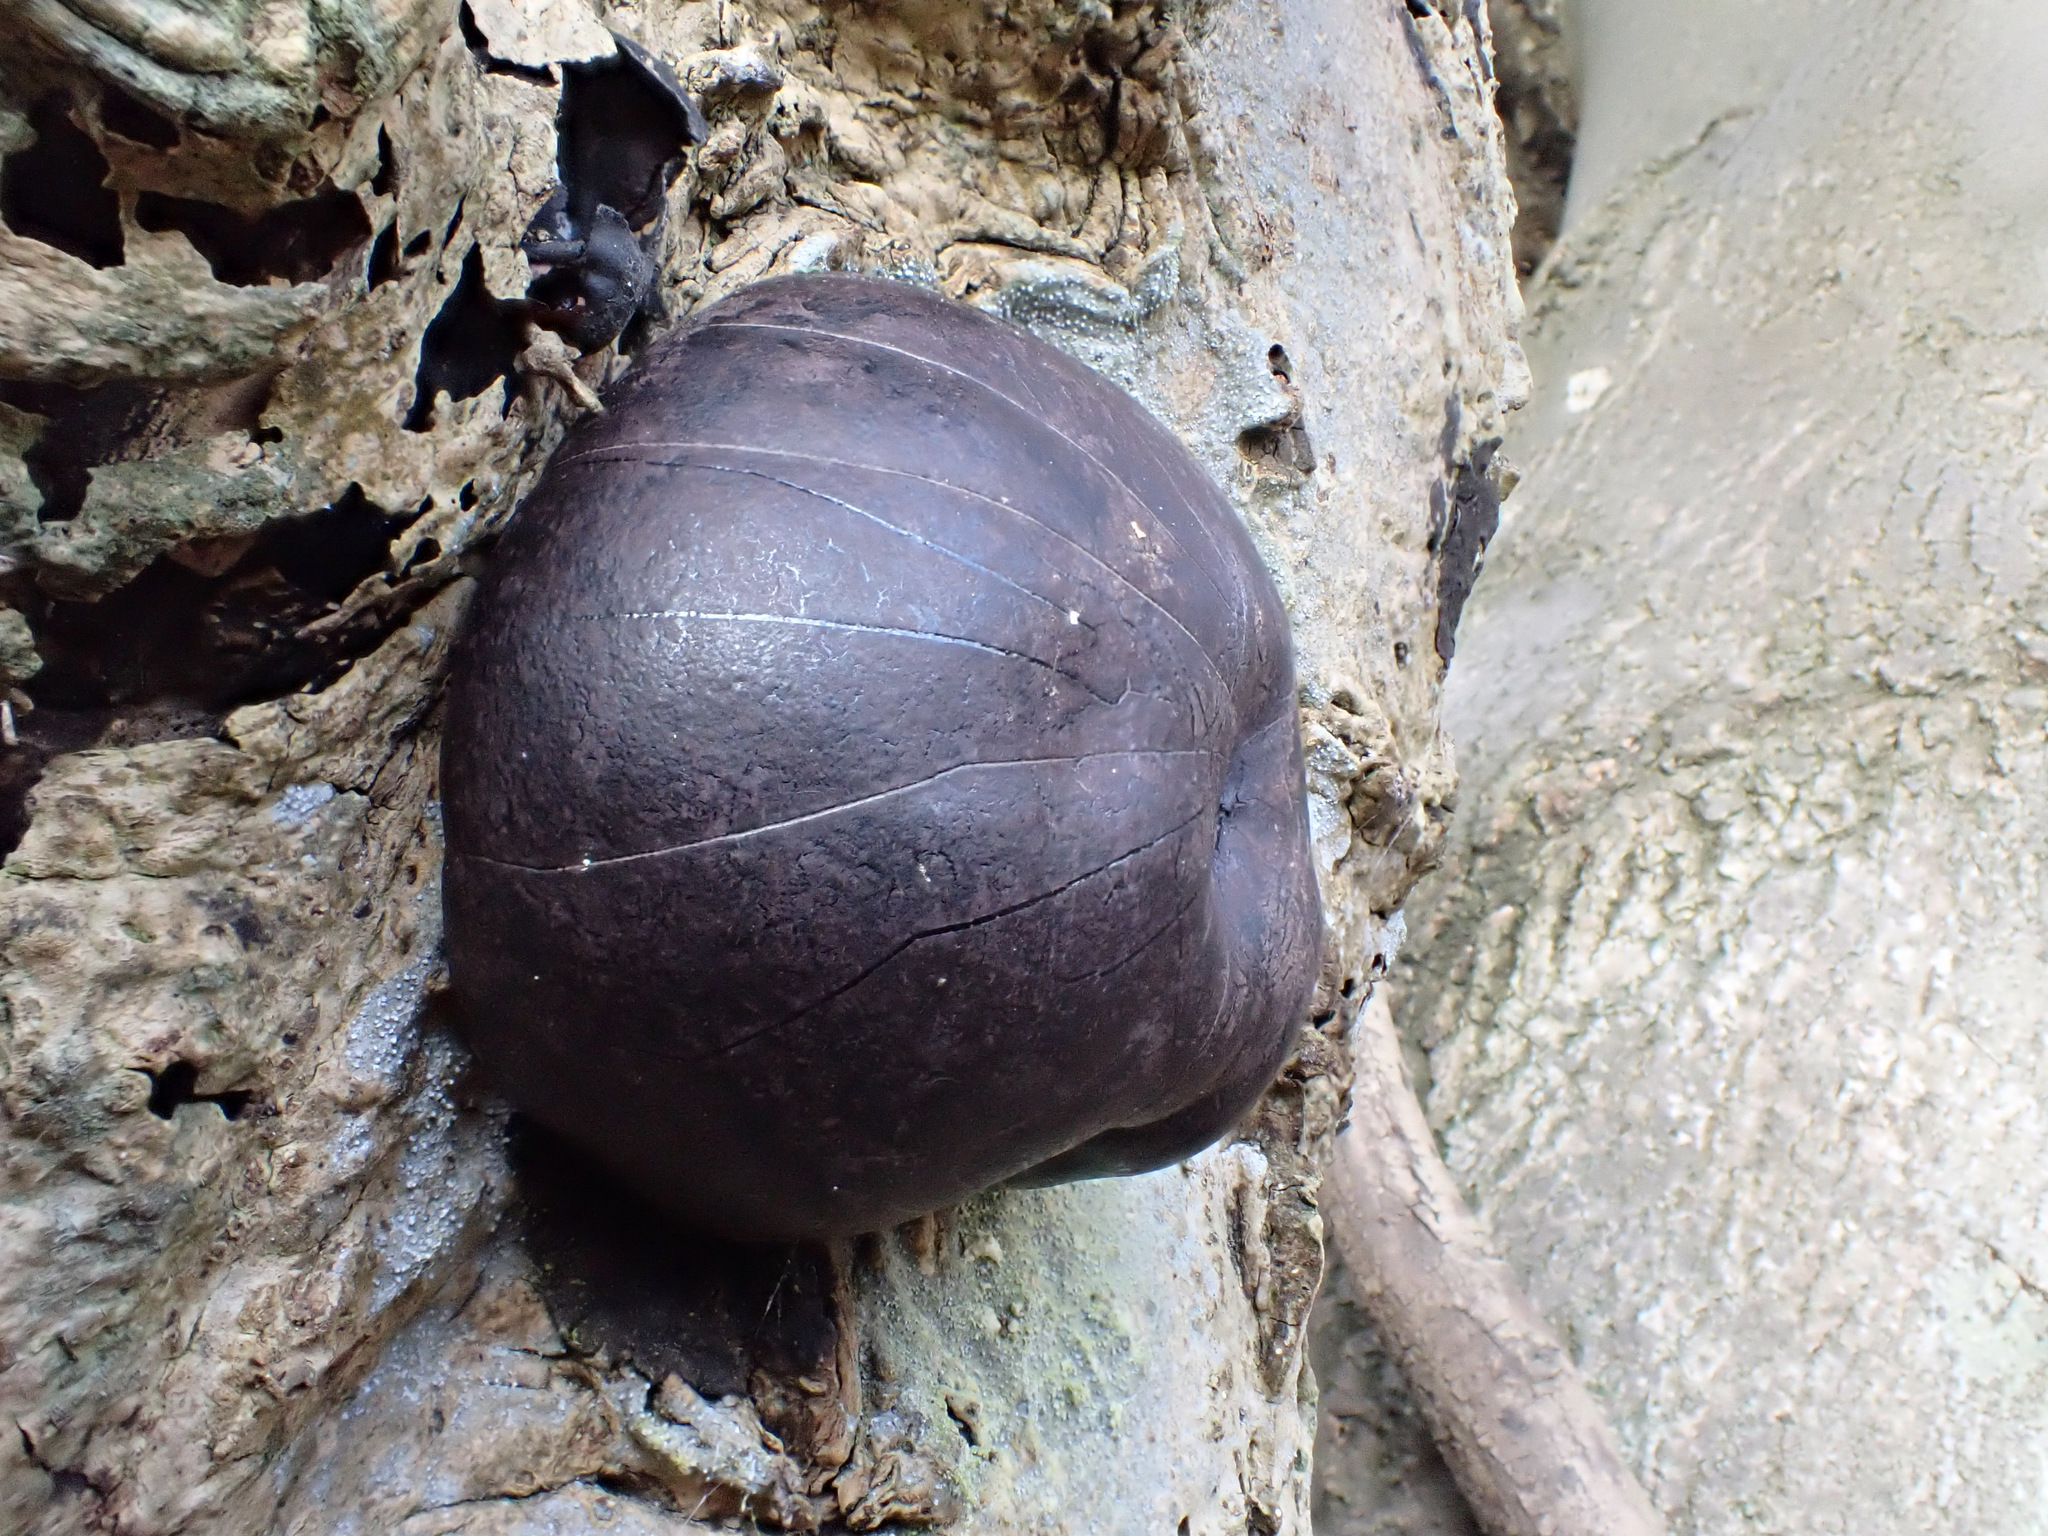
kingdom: Fungi
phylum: Ascomycota
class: Sordariomycetes
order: Xylariales
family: Hypoxylaceae
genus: Daldinia
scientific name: Daldinia concentrica
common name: Cramp balls
